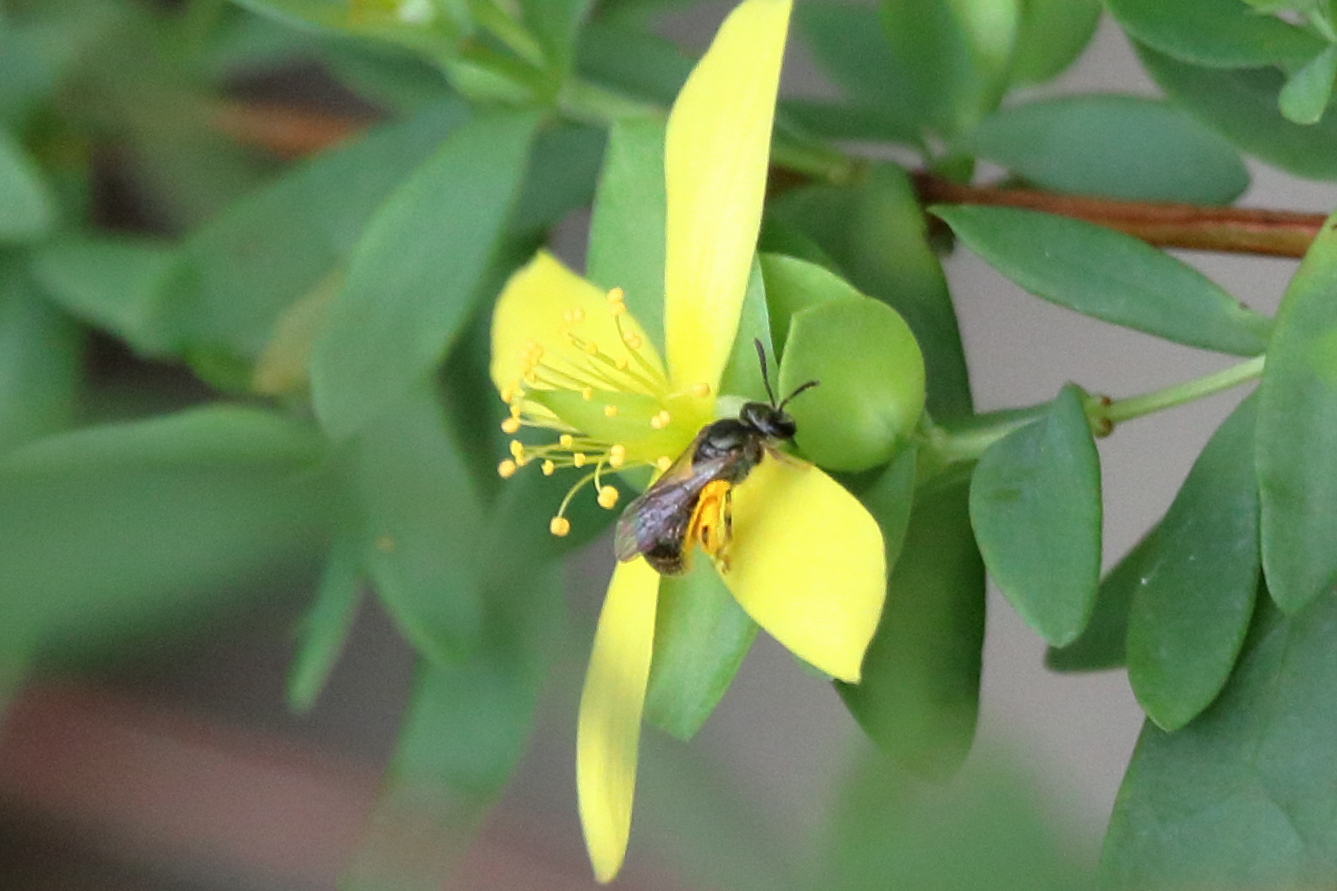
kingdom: Animalia
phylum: Arthropoda
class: Insecta
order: Hymenoptera
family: Halictidae
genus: Dialictus
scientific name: Dialictus
